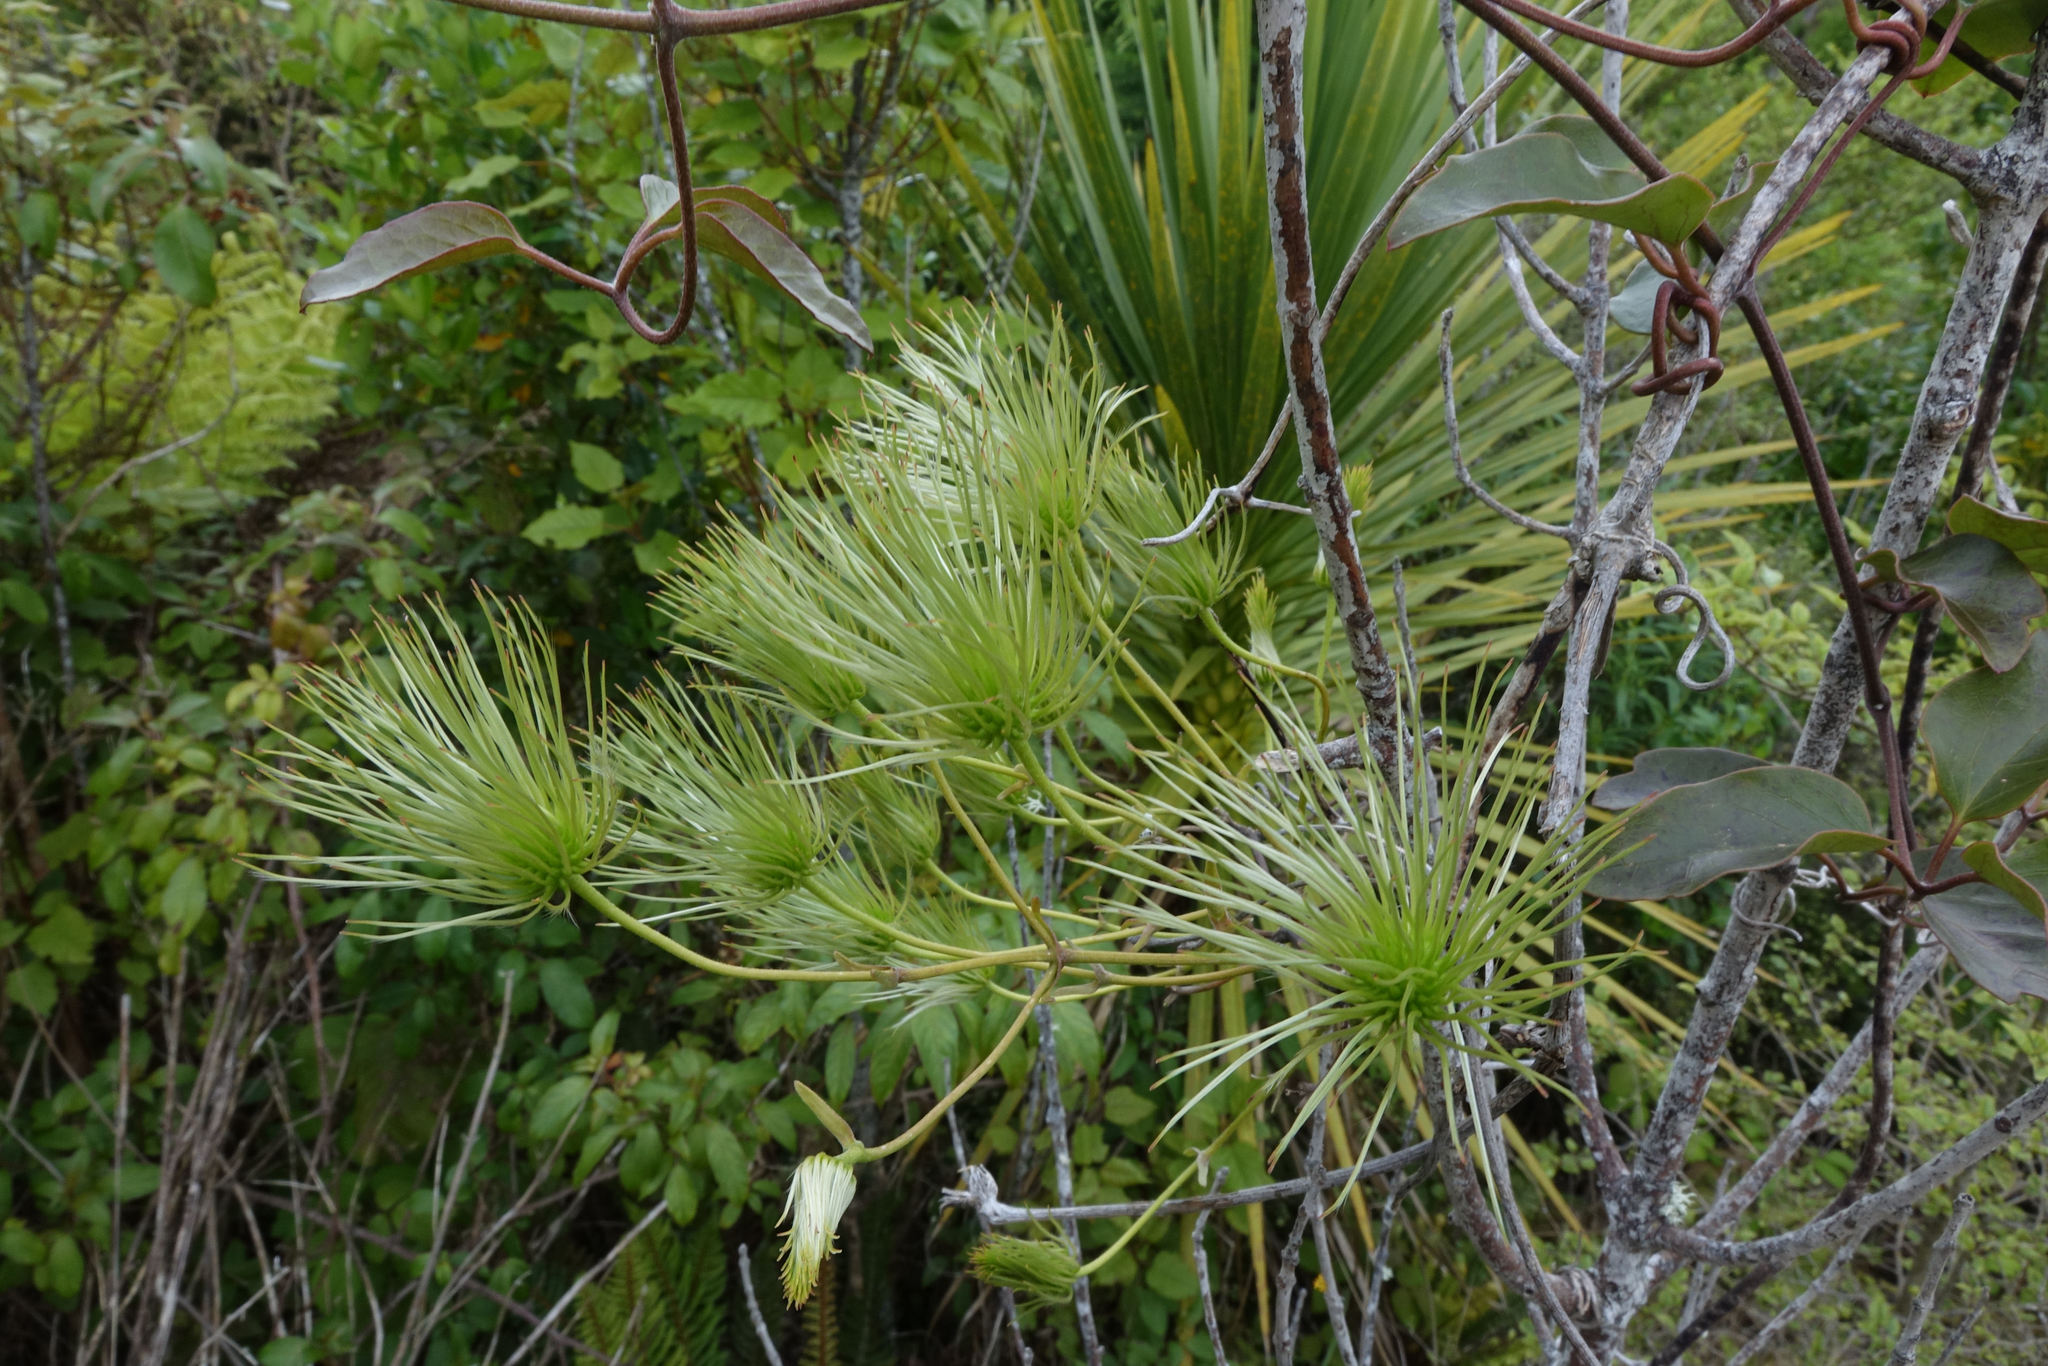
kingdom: Plantae
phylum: Tracheophyta
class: Magnoliopsida
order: Ranunculales
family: Ranunculaceae
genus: Clematis
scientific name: Clematis paniculata
